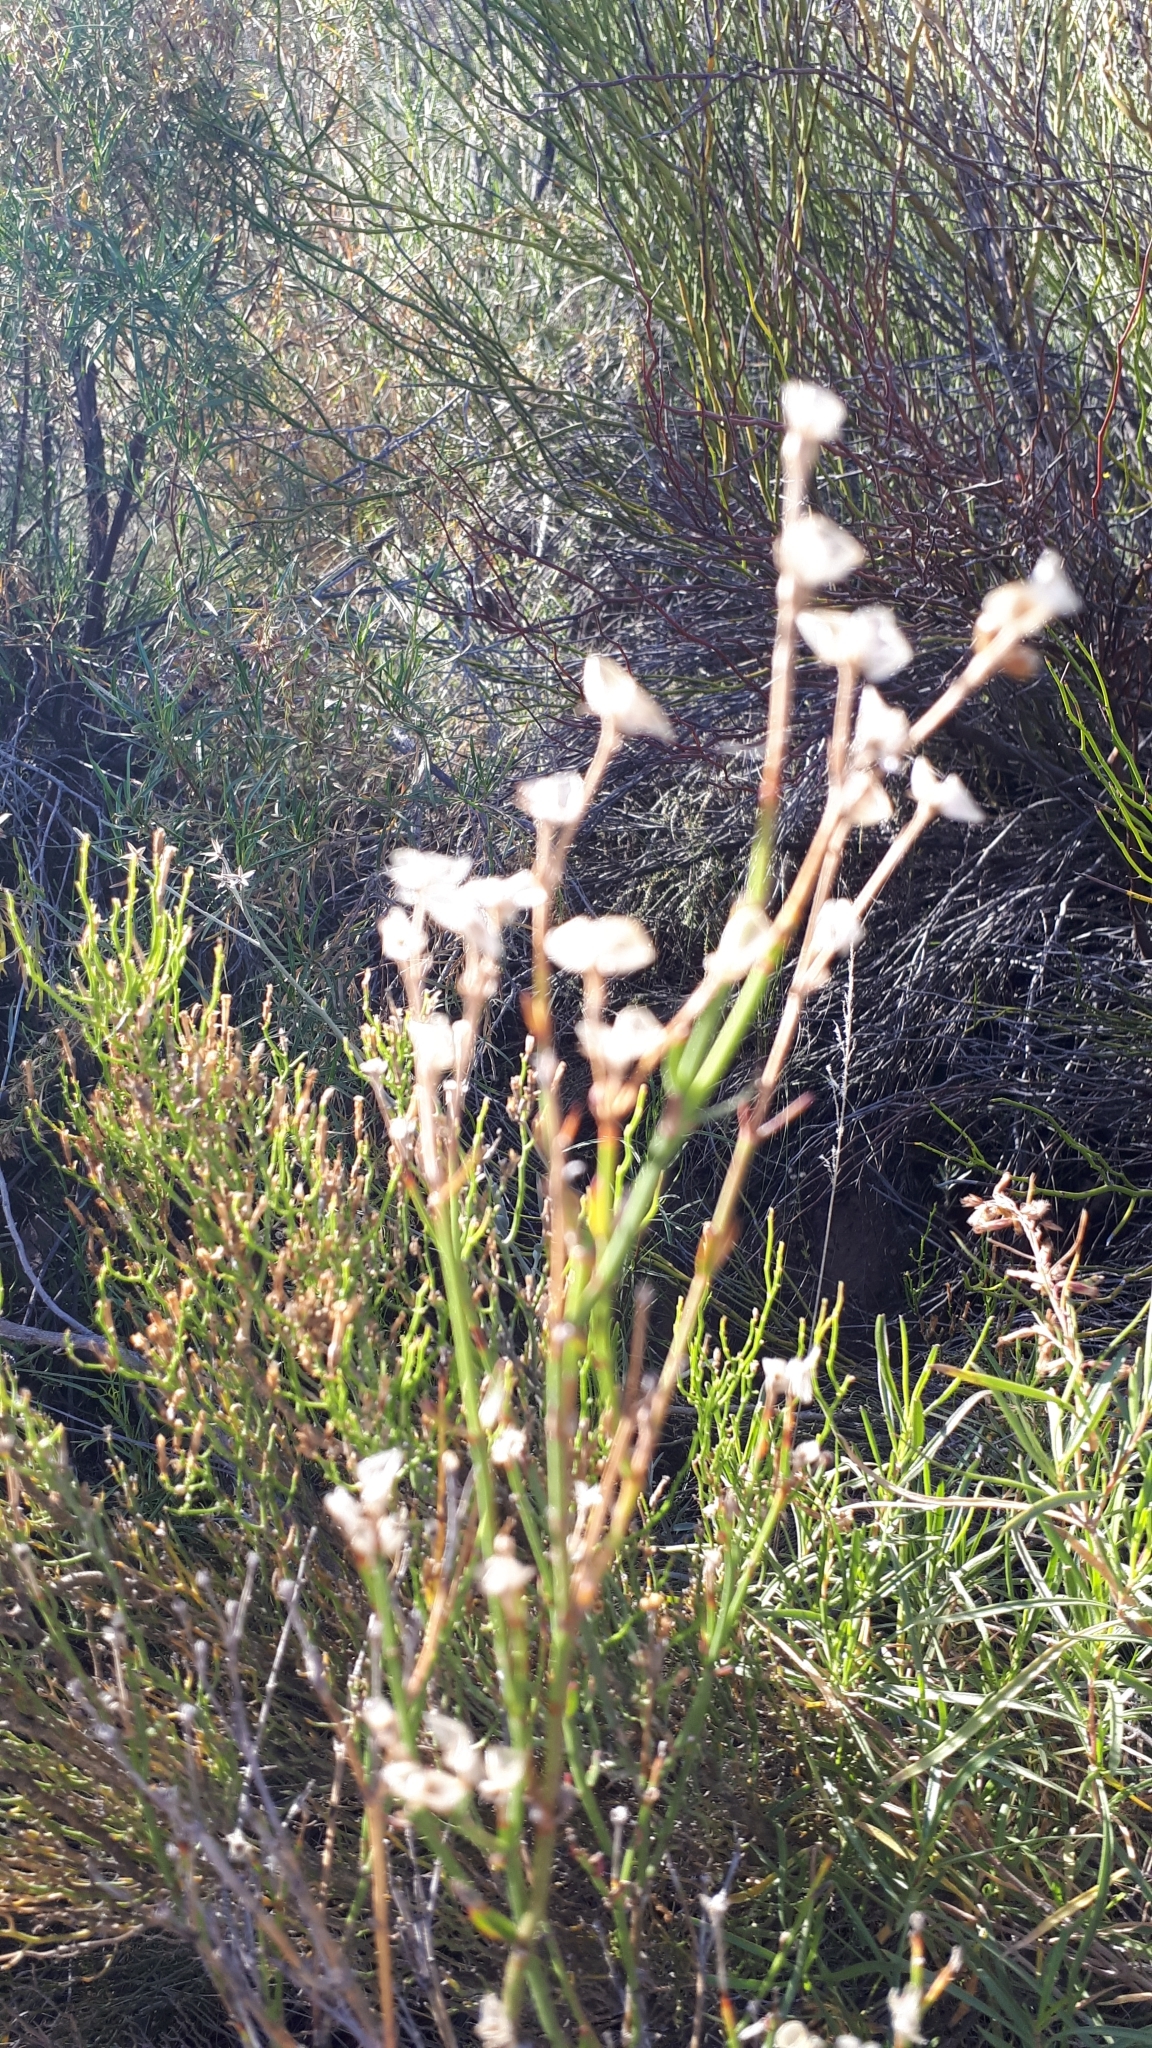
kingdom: Plantae
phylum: Tracheophyta
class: Magnoliopsida
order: Lamiales
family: Oleaceae
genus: Menodora
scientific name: Menodora decemfida
